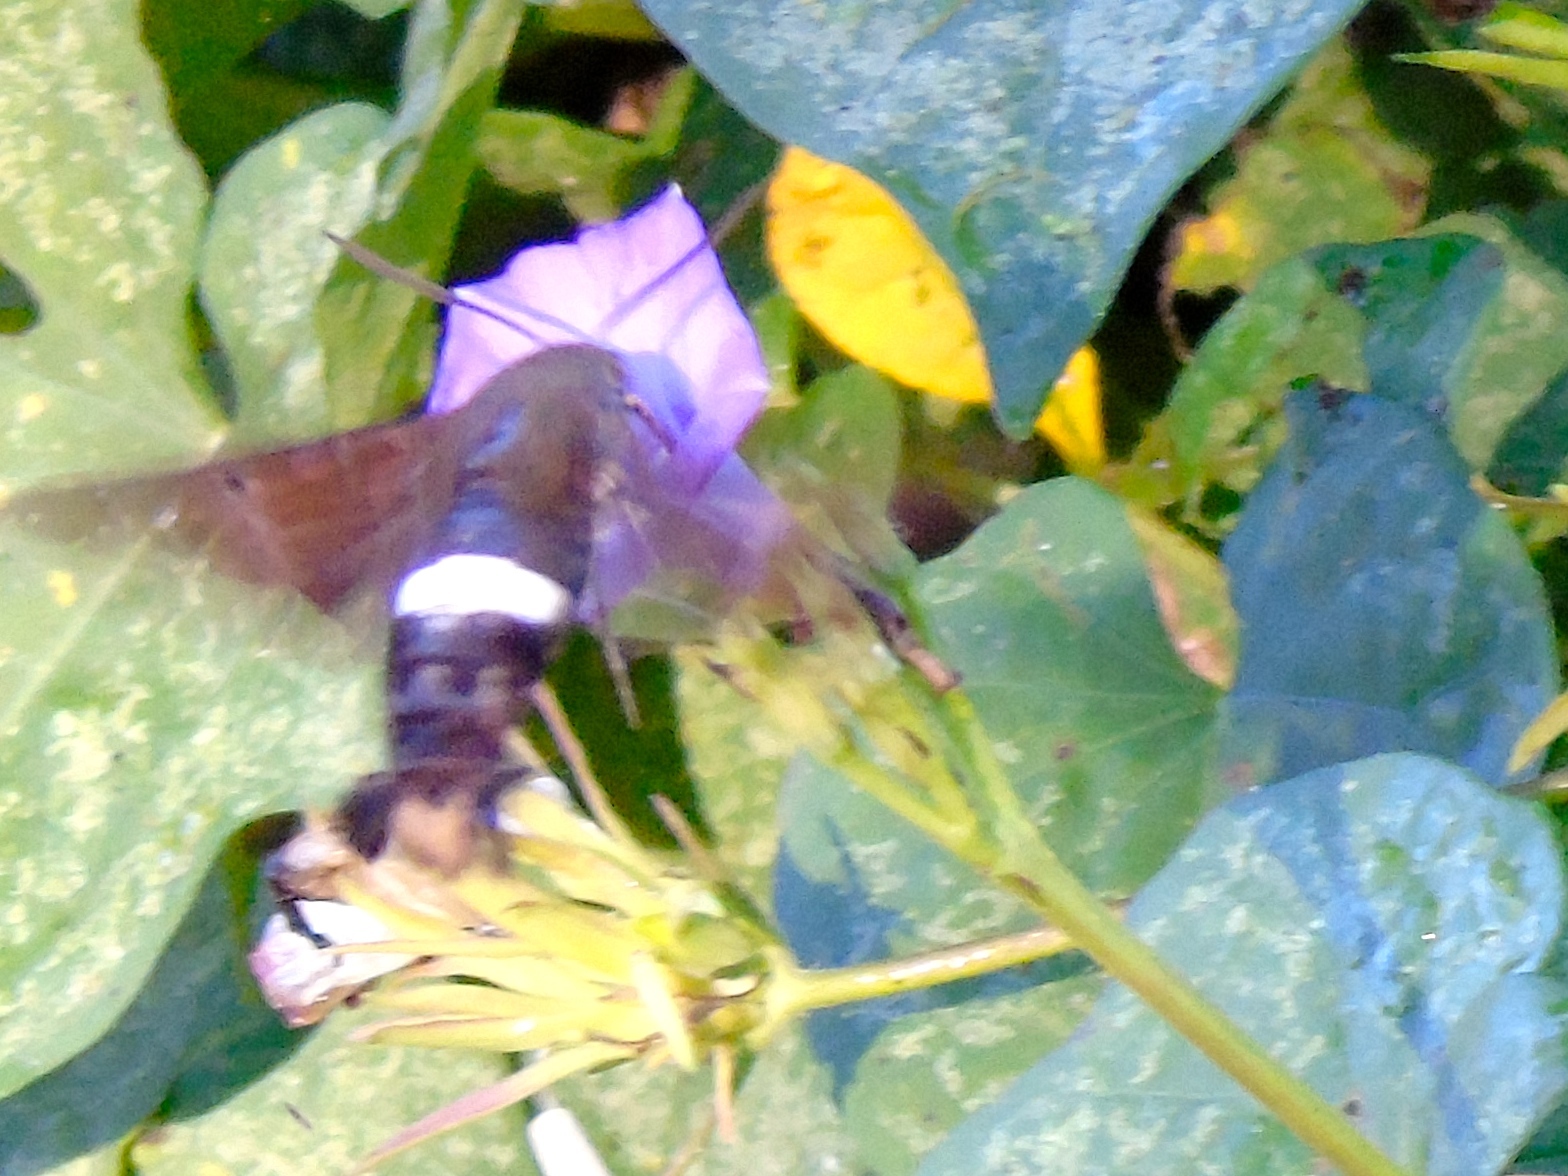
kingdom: Animalia
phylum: Arthropoda
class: Insecta
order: Lepidoptera
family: Sphingidae
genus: Aellopos
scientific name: Aellopos
